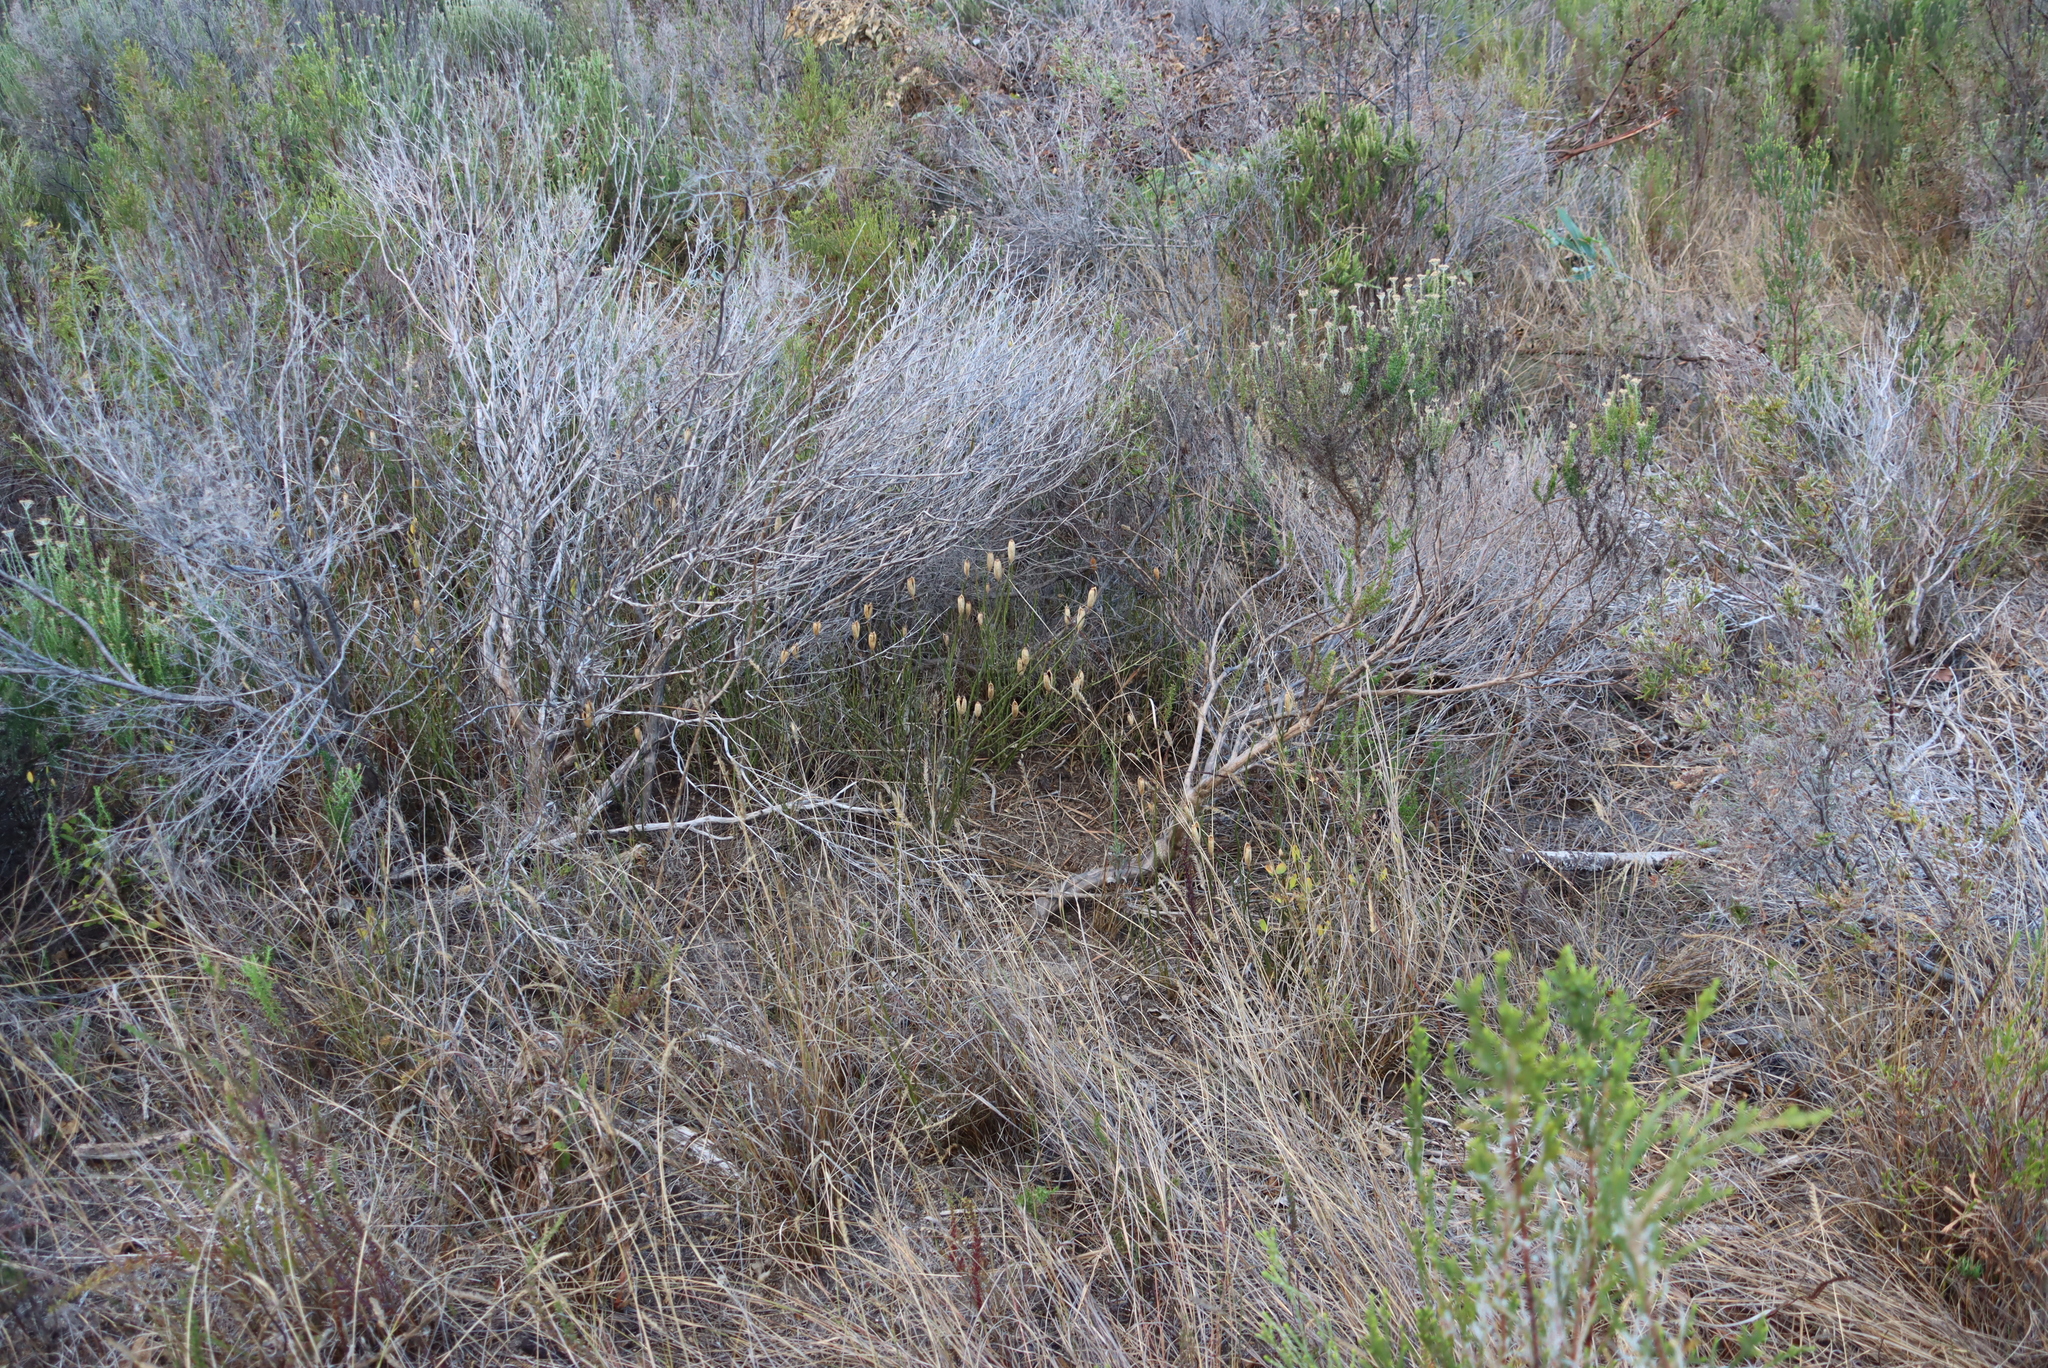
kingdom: Plantae
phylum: Tracheophyta
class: Magnoliopsida
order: Solanales
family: Montiniaceae
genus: Montinia
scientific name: Montinia caryophyllacea
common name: Wild clove-bush
